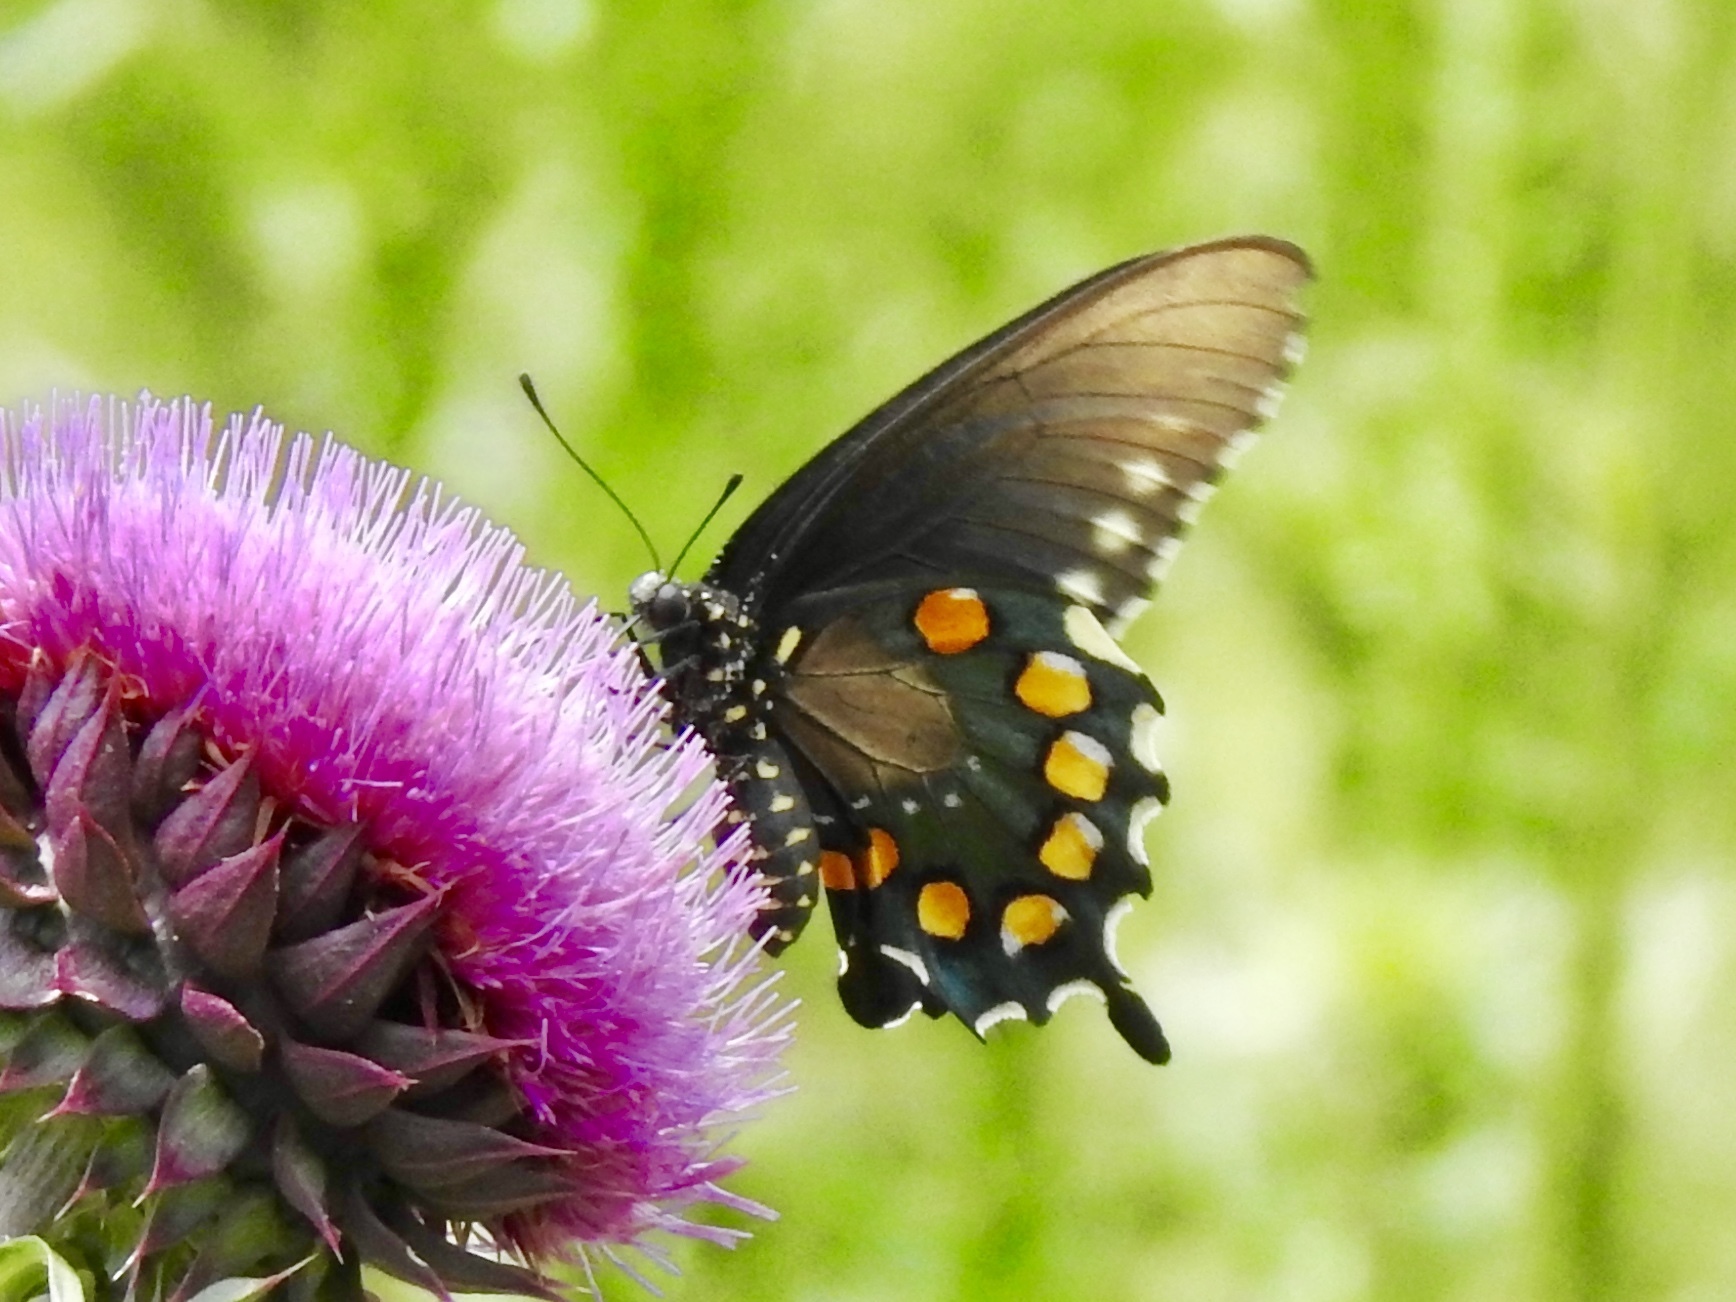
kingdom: Animalia
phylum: Arthropoda
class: Insecta
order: Lepidoptera
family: Papilionidae
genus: Battus
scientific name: Battus philenor
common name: Pipevine swallowtail
